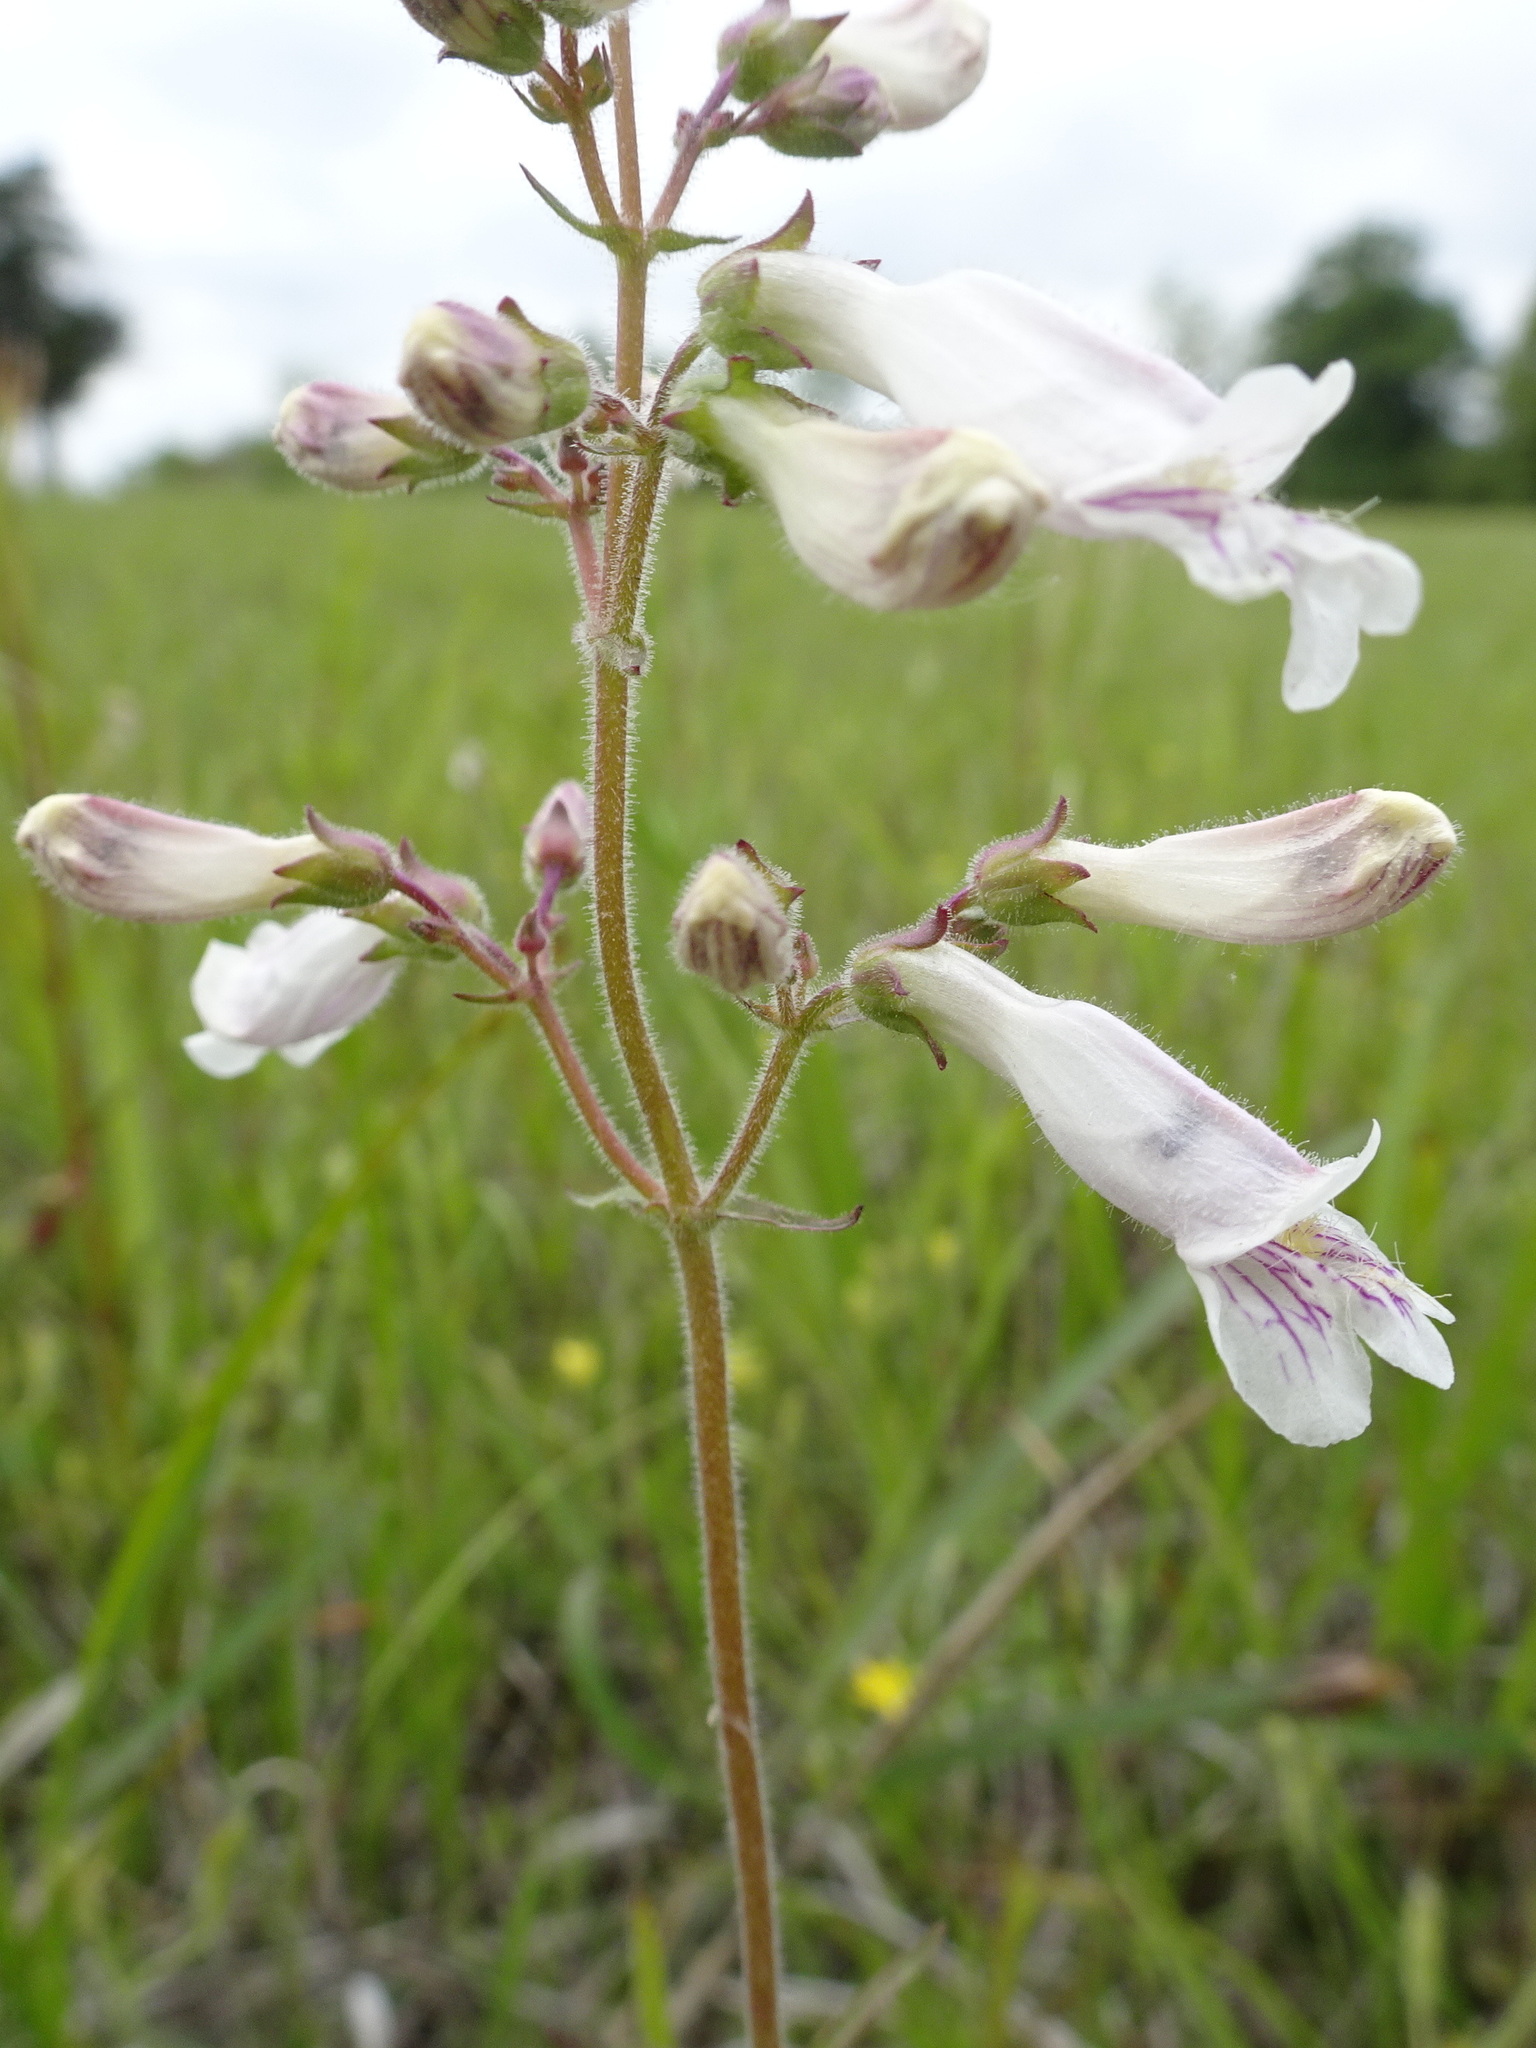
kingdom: Plantae
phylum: Tracheophyta
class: Magnoliopsida
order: Lamiales
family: Plantaginaceae
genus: Penstemon
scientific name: Penstemon pallidus
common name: Pale beardtongue
